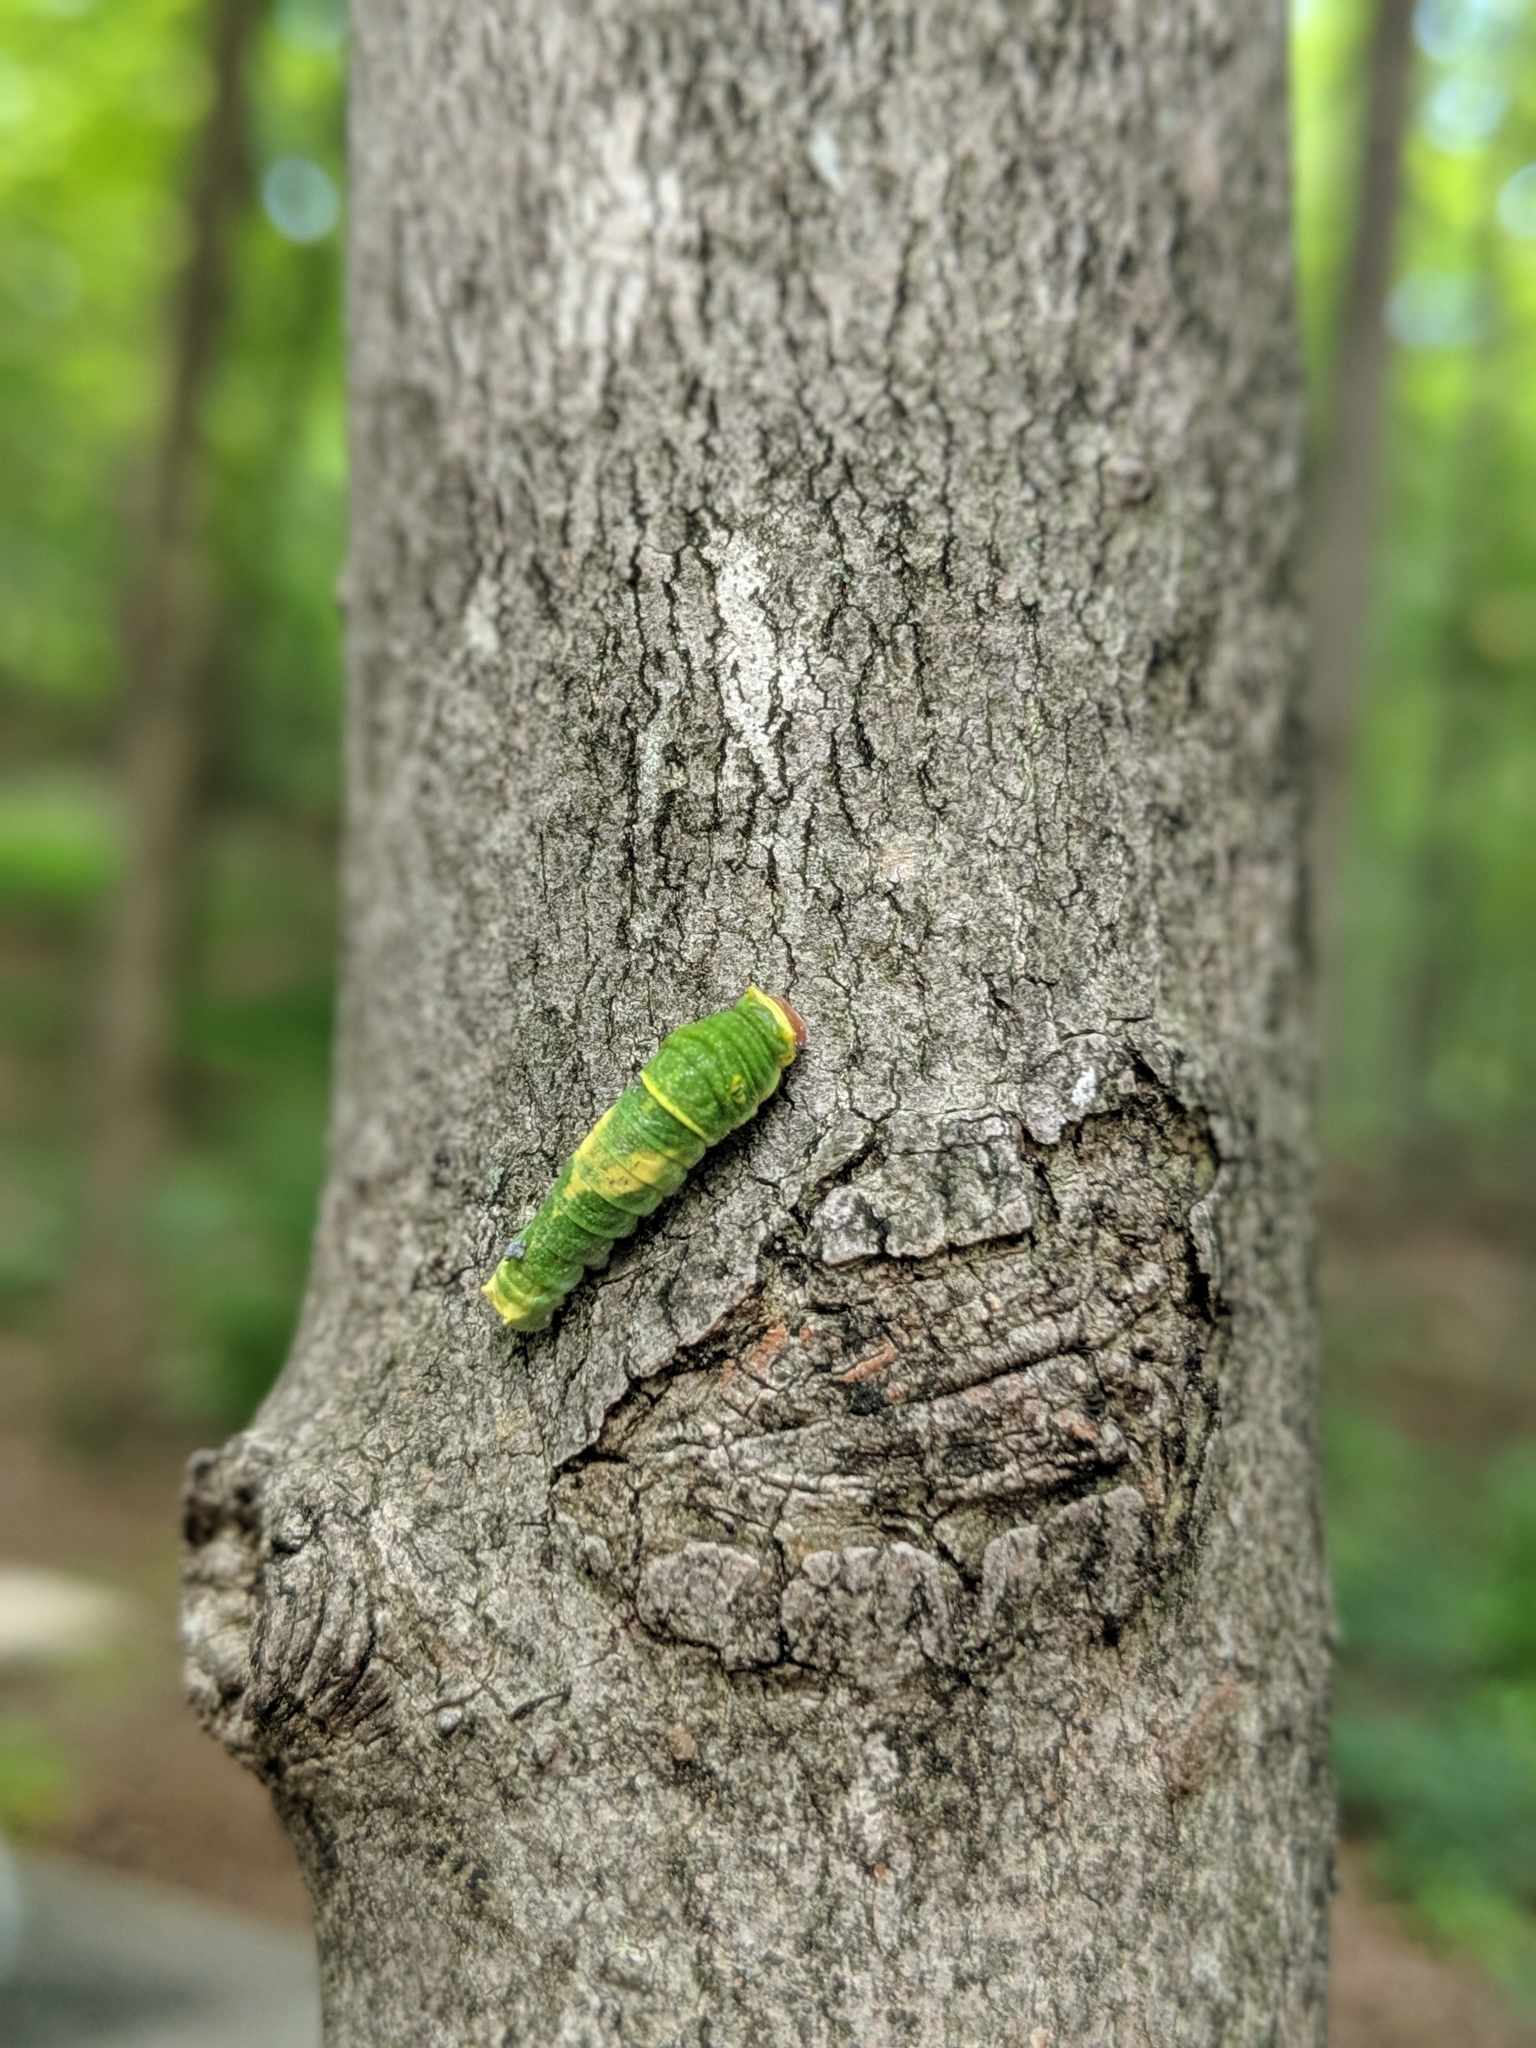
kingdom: Animalia
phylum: Arthropoda
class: Insecta
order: Lepidoptera
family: Papilionidae
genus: Papilio
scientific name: Papilio glaucus
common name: Tiger swallowtail
